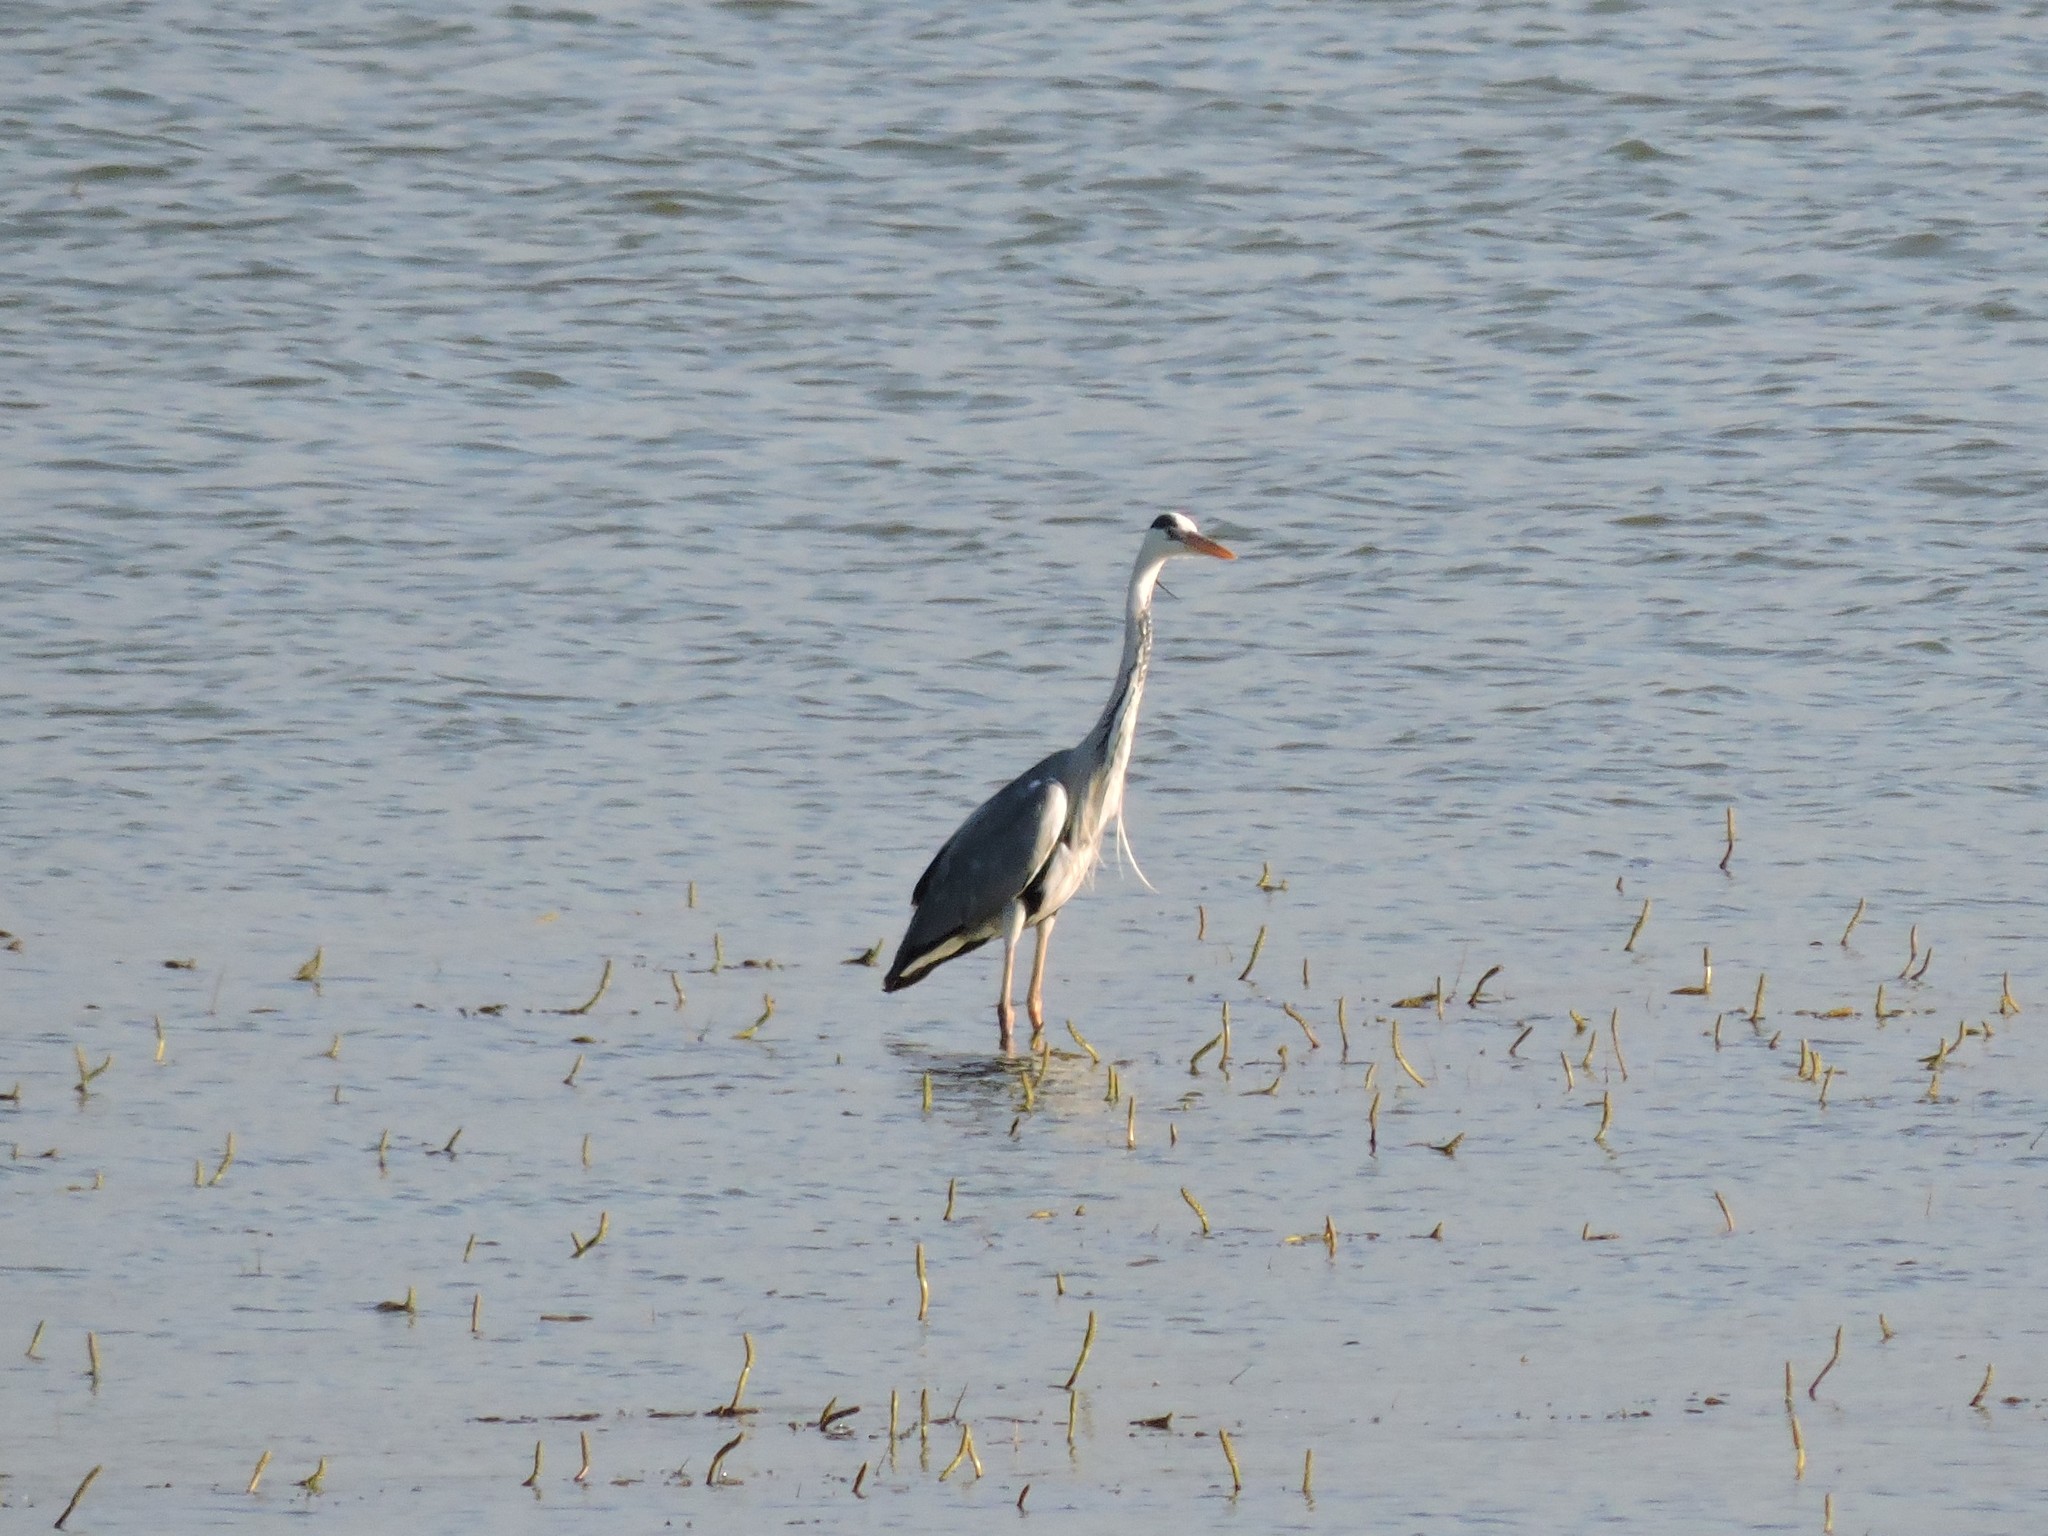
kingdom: Animalia
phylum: Chordata
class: Aves
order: Pelecaniformes
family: Ardeidae
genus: Ardea
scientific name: Ardea cinerea
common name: Grey heron
